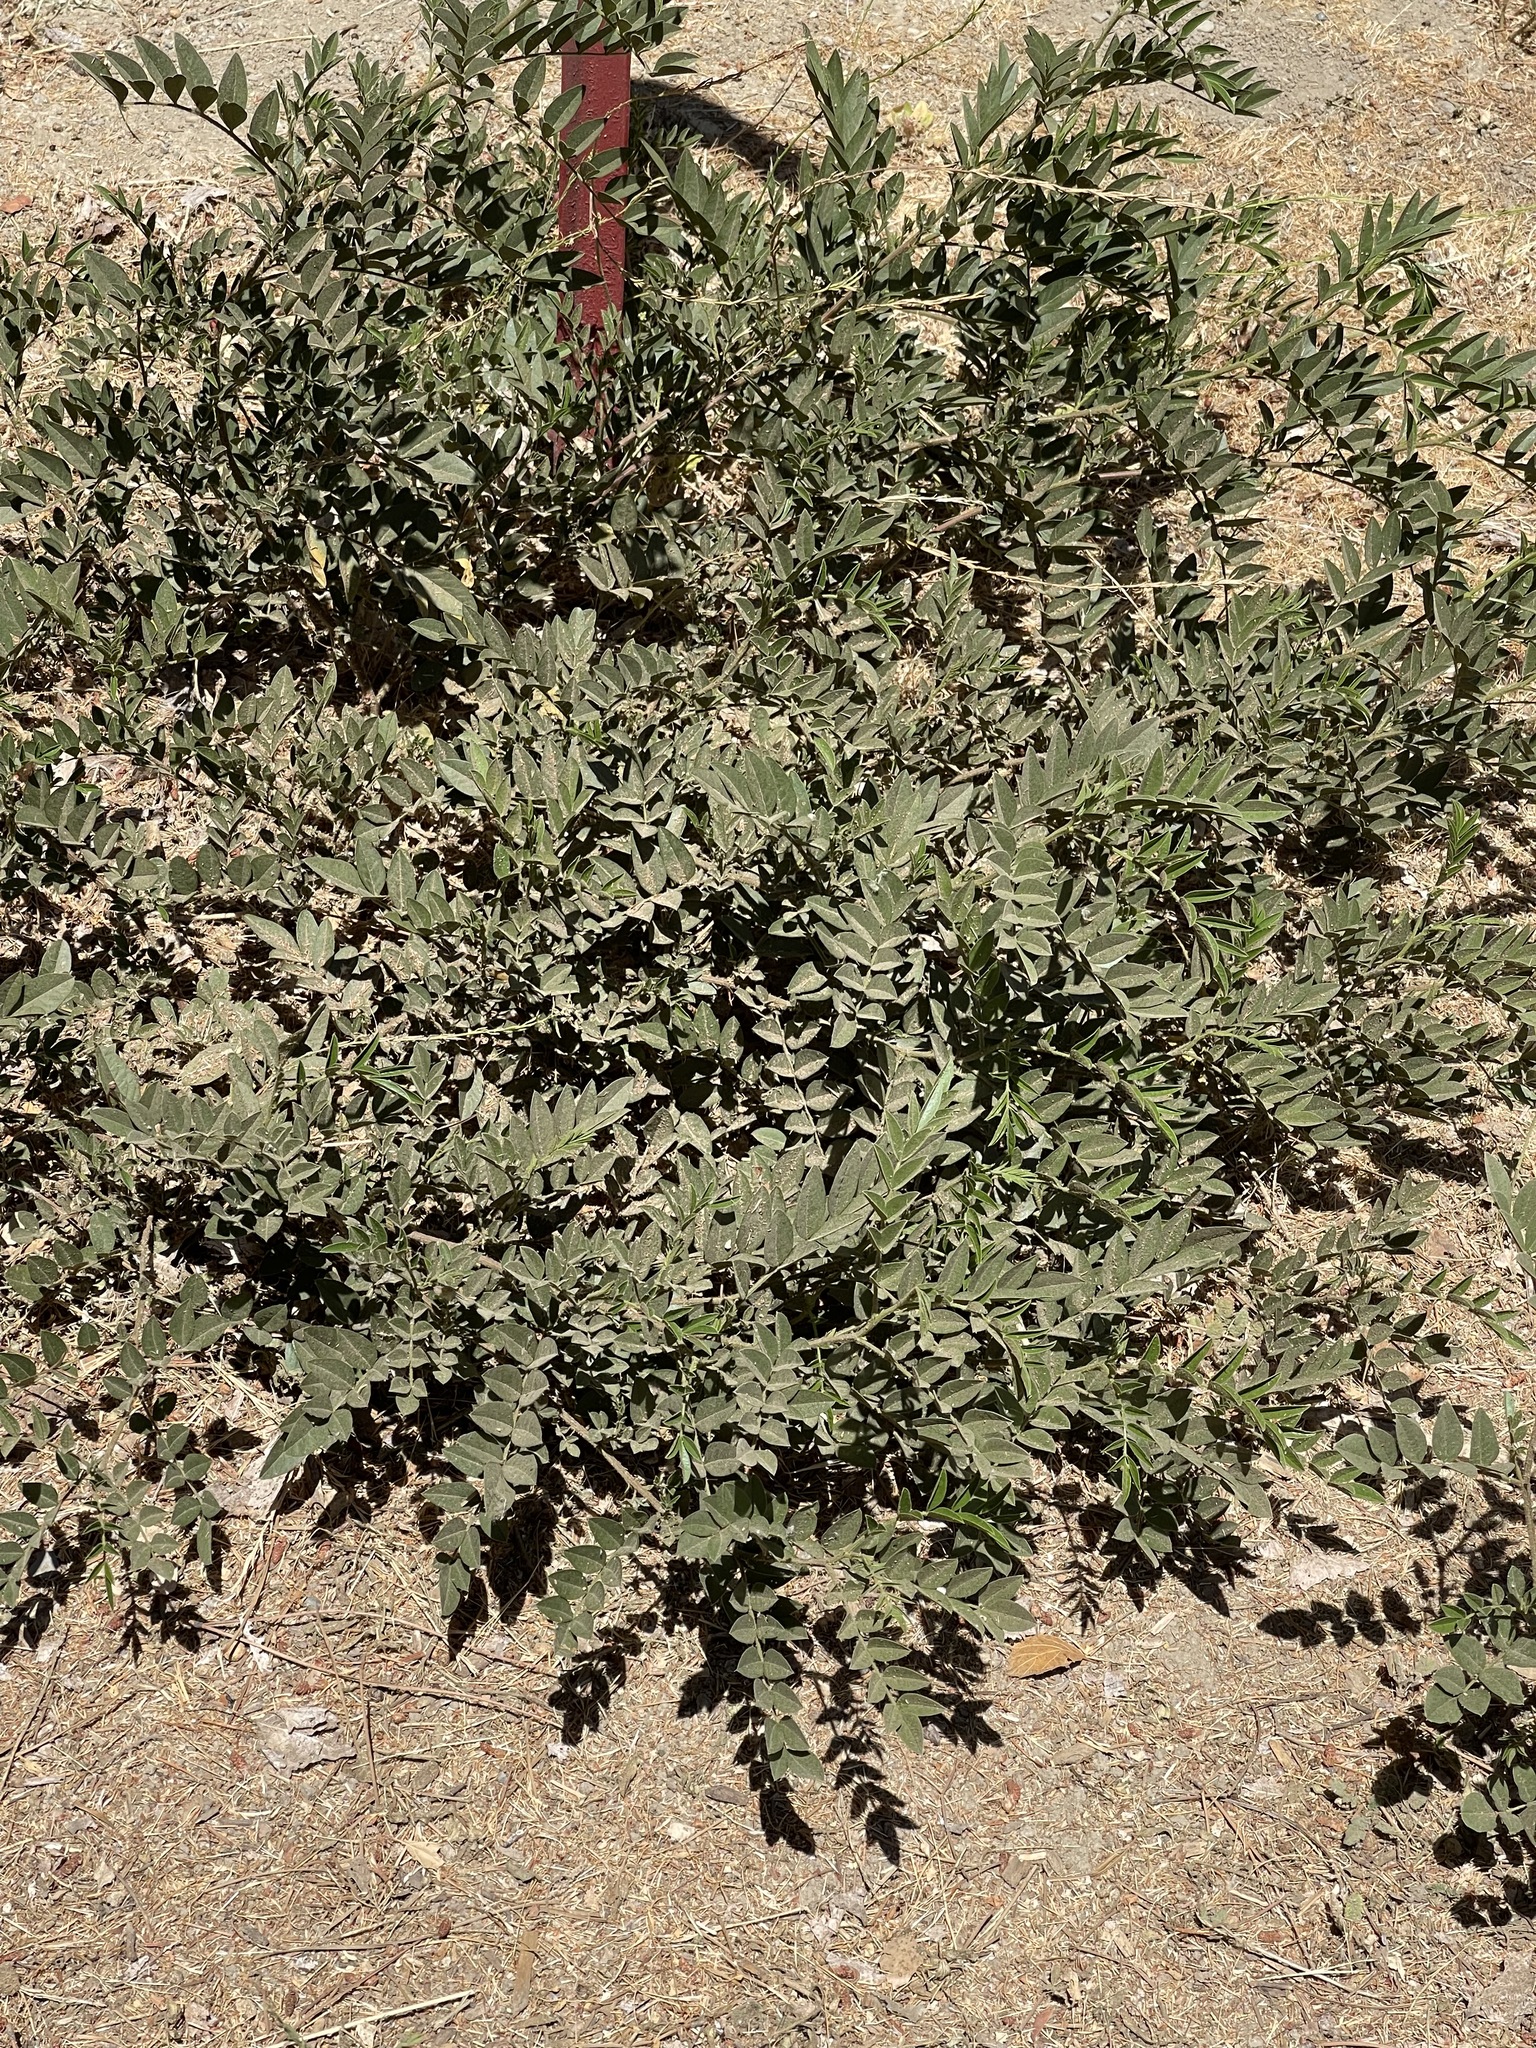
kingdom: Plantae
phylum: Tracheophyta
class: Magnoliopsida
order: Fabales
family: Fabaceae
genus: Glycyrrhiza
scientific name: Glycyrrhiza lepidota
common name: American liquorice
